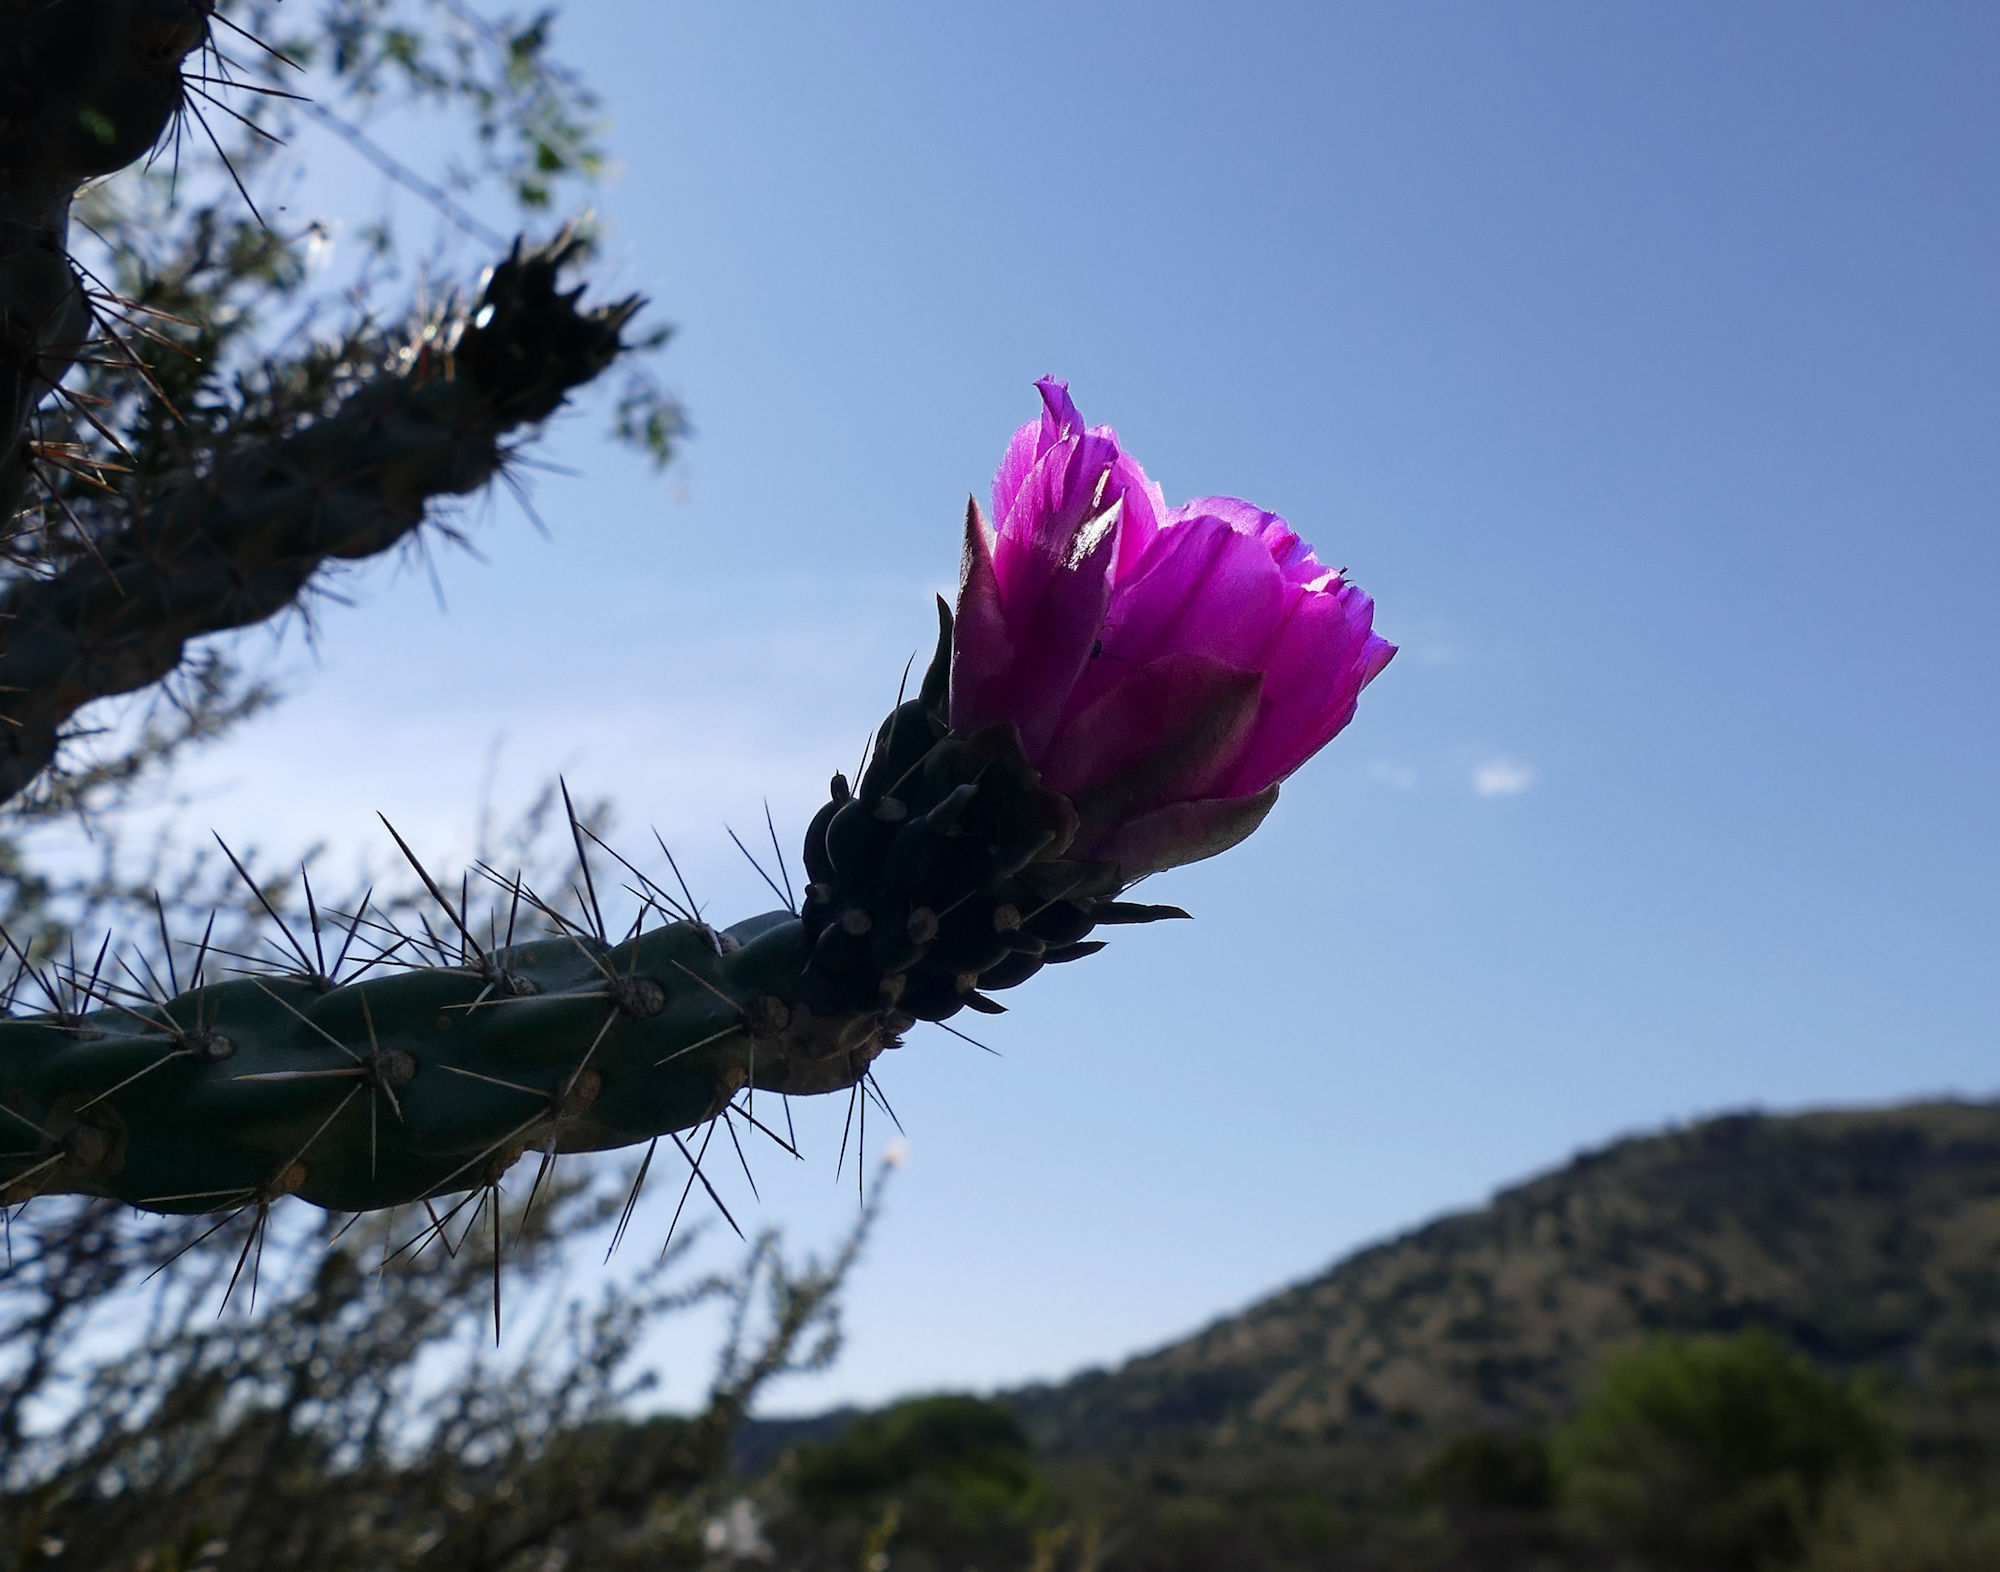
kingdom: Plantae
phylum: Tracheophyta
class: Magnoliopsida
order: Caryophyllales
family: Cactaceae
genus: Cylindropuntia
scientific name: Cylindropuntia imbricata
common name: Candelabrum cactus
